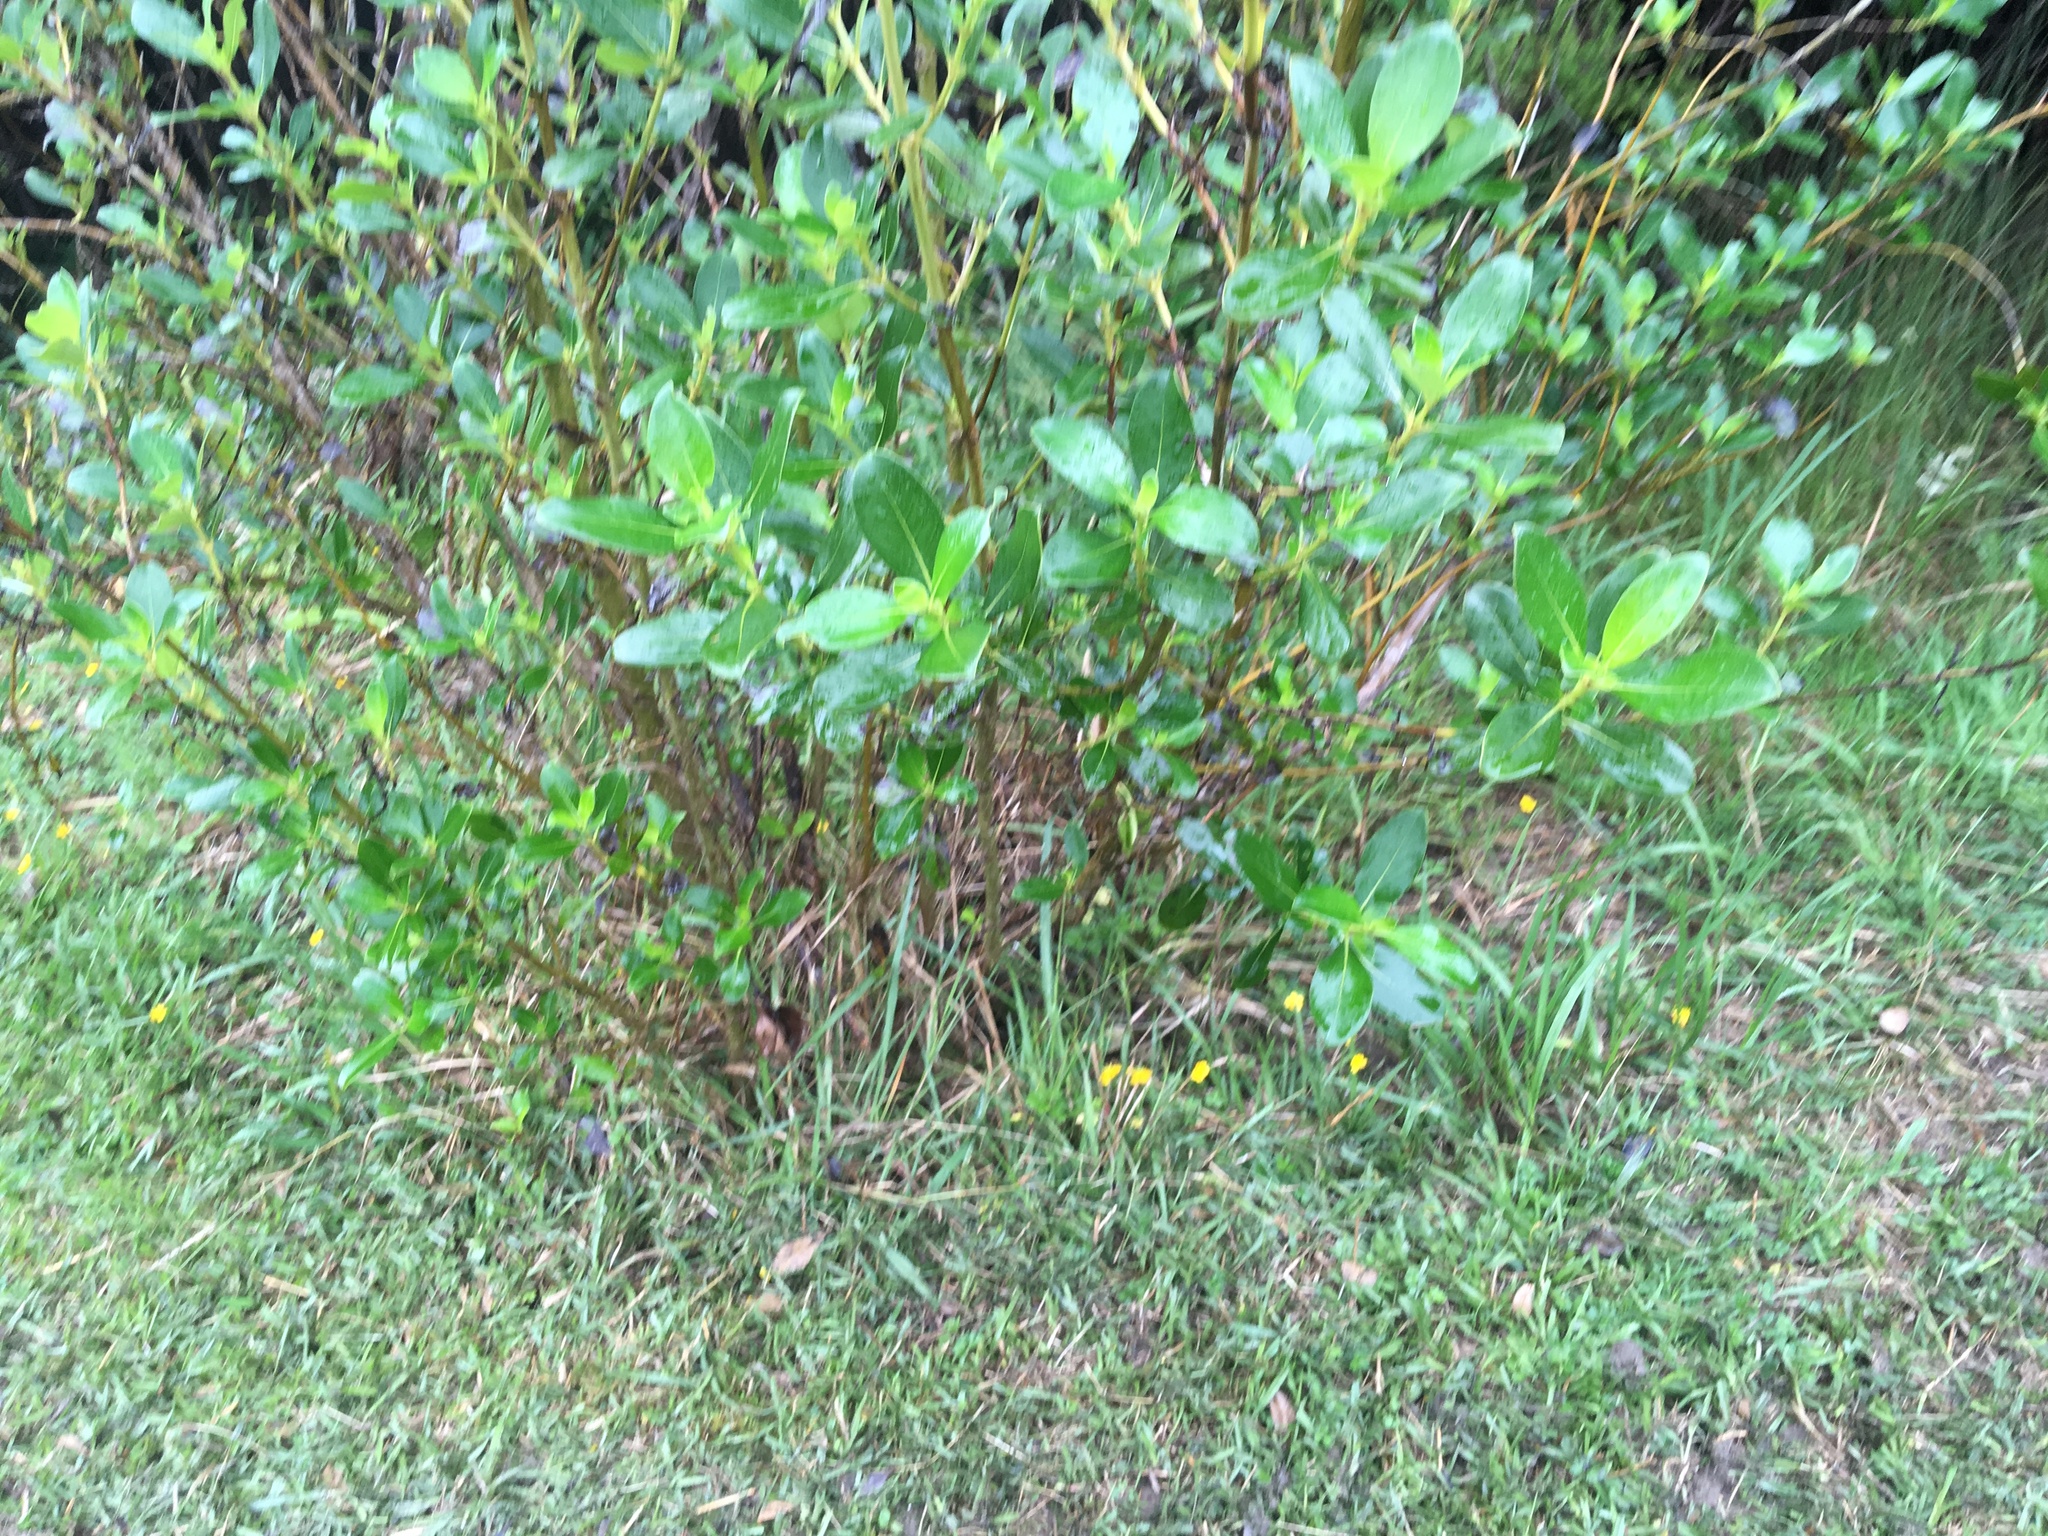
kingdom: Plantae
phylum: Tracheophyta
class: Magnoliopsida
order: Gentianales
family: Rubiaceae
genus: Coprosma
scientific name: Coprosma robusta
